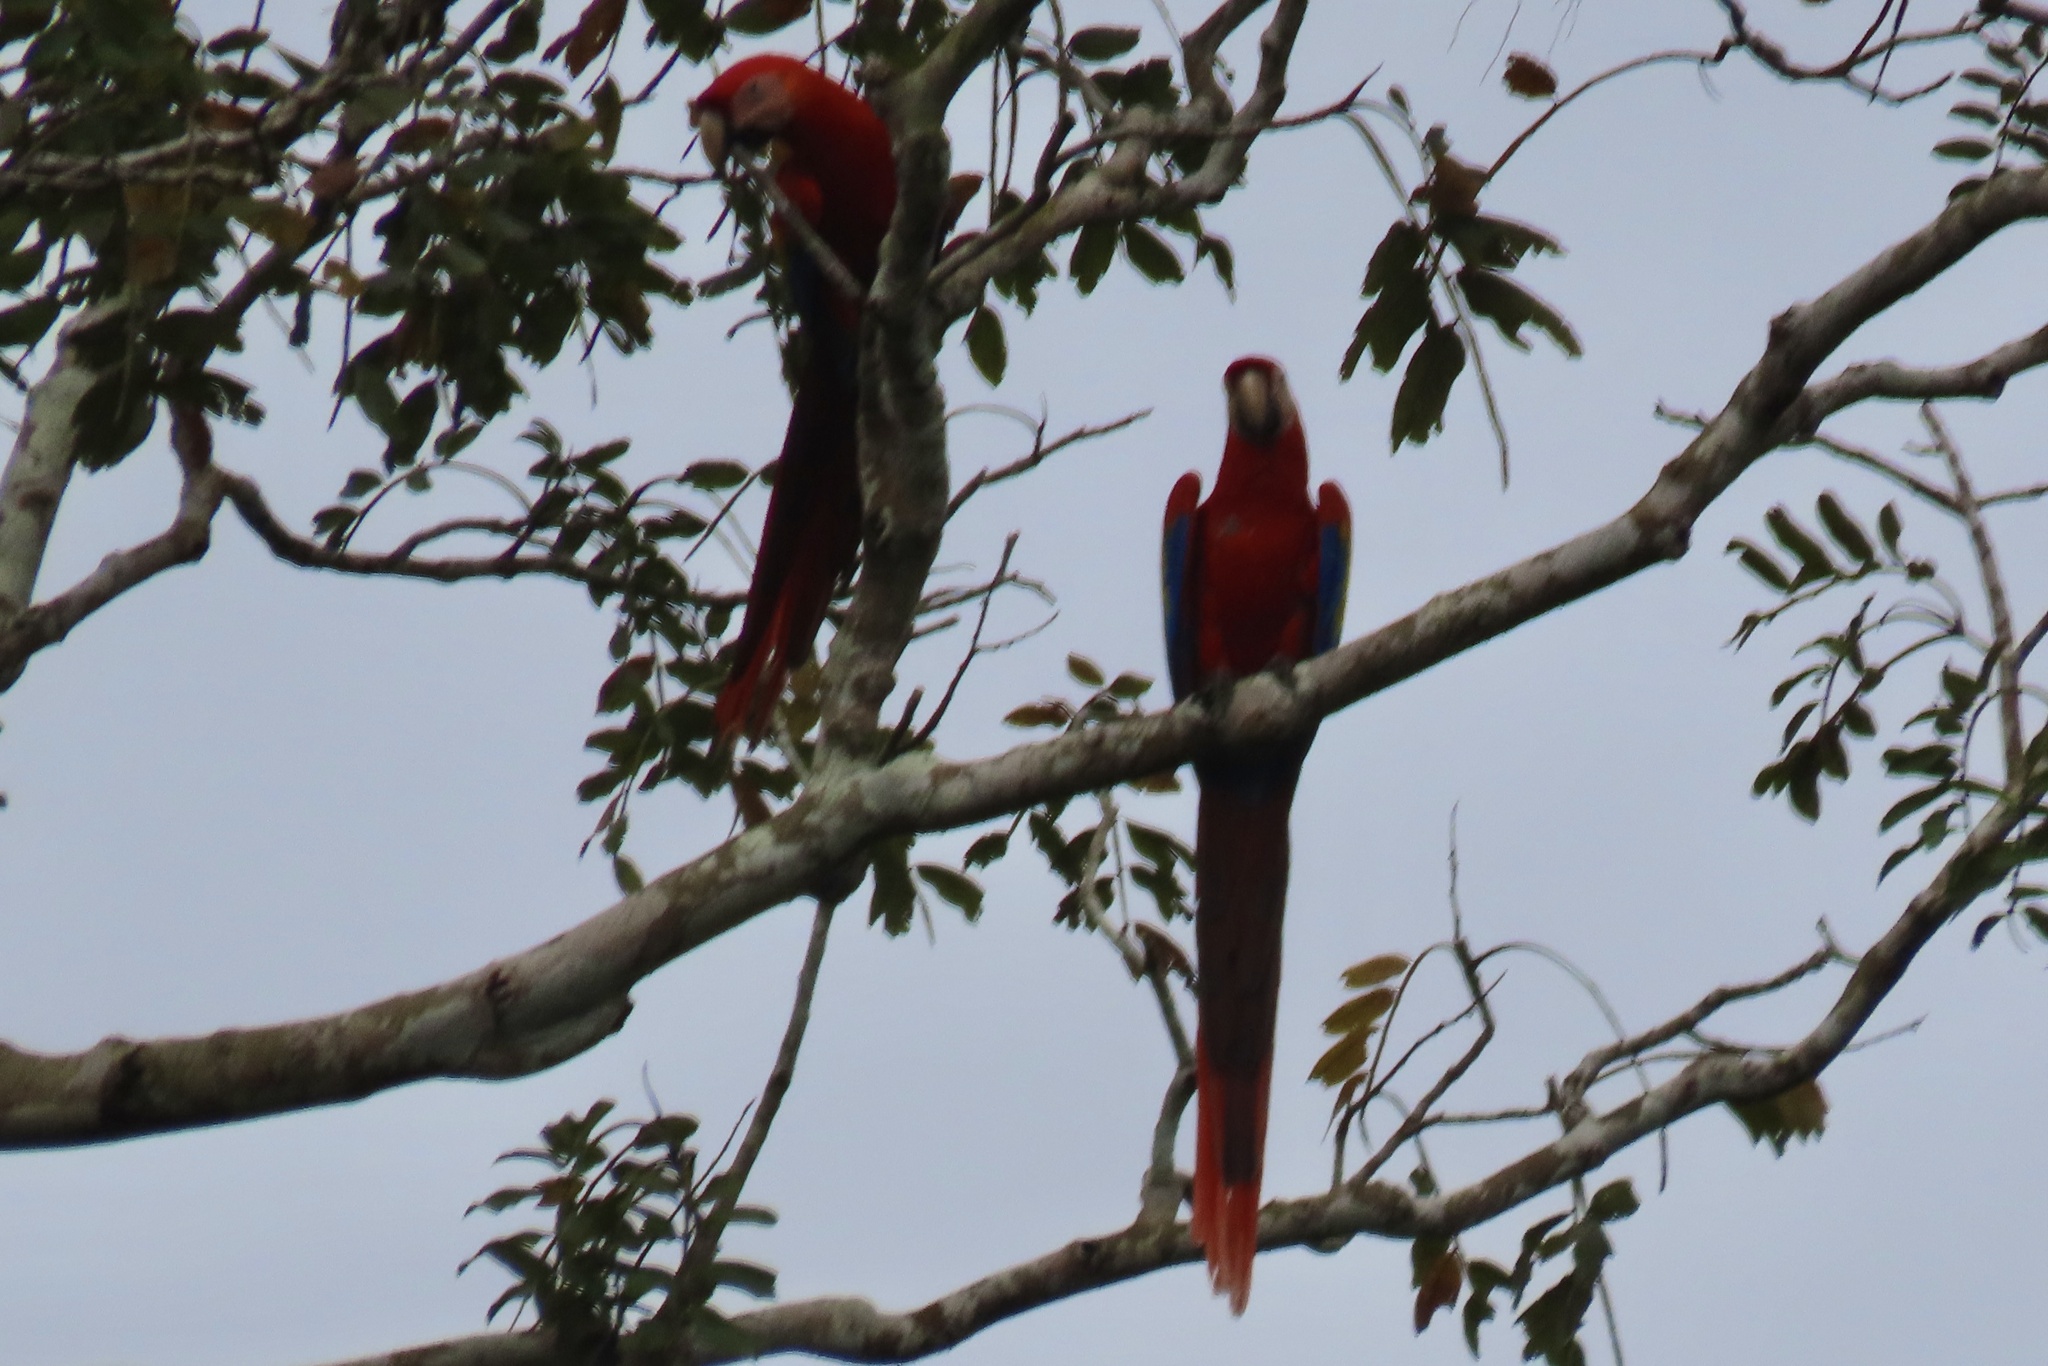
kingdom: Animalia
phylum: Chordata
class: Aves
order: Psittaciformes
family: Psittacidae
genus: Ara
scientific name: Ara macao
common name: Scarlet macaw
